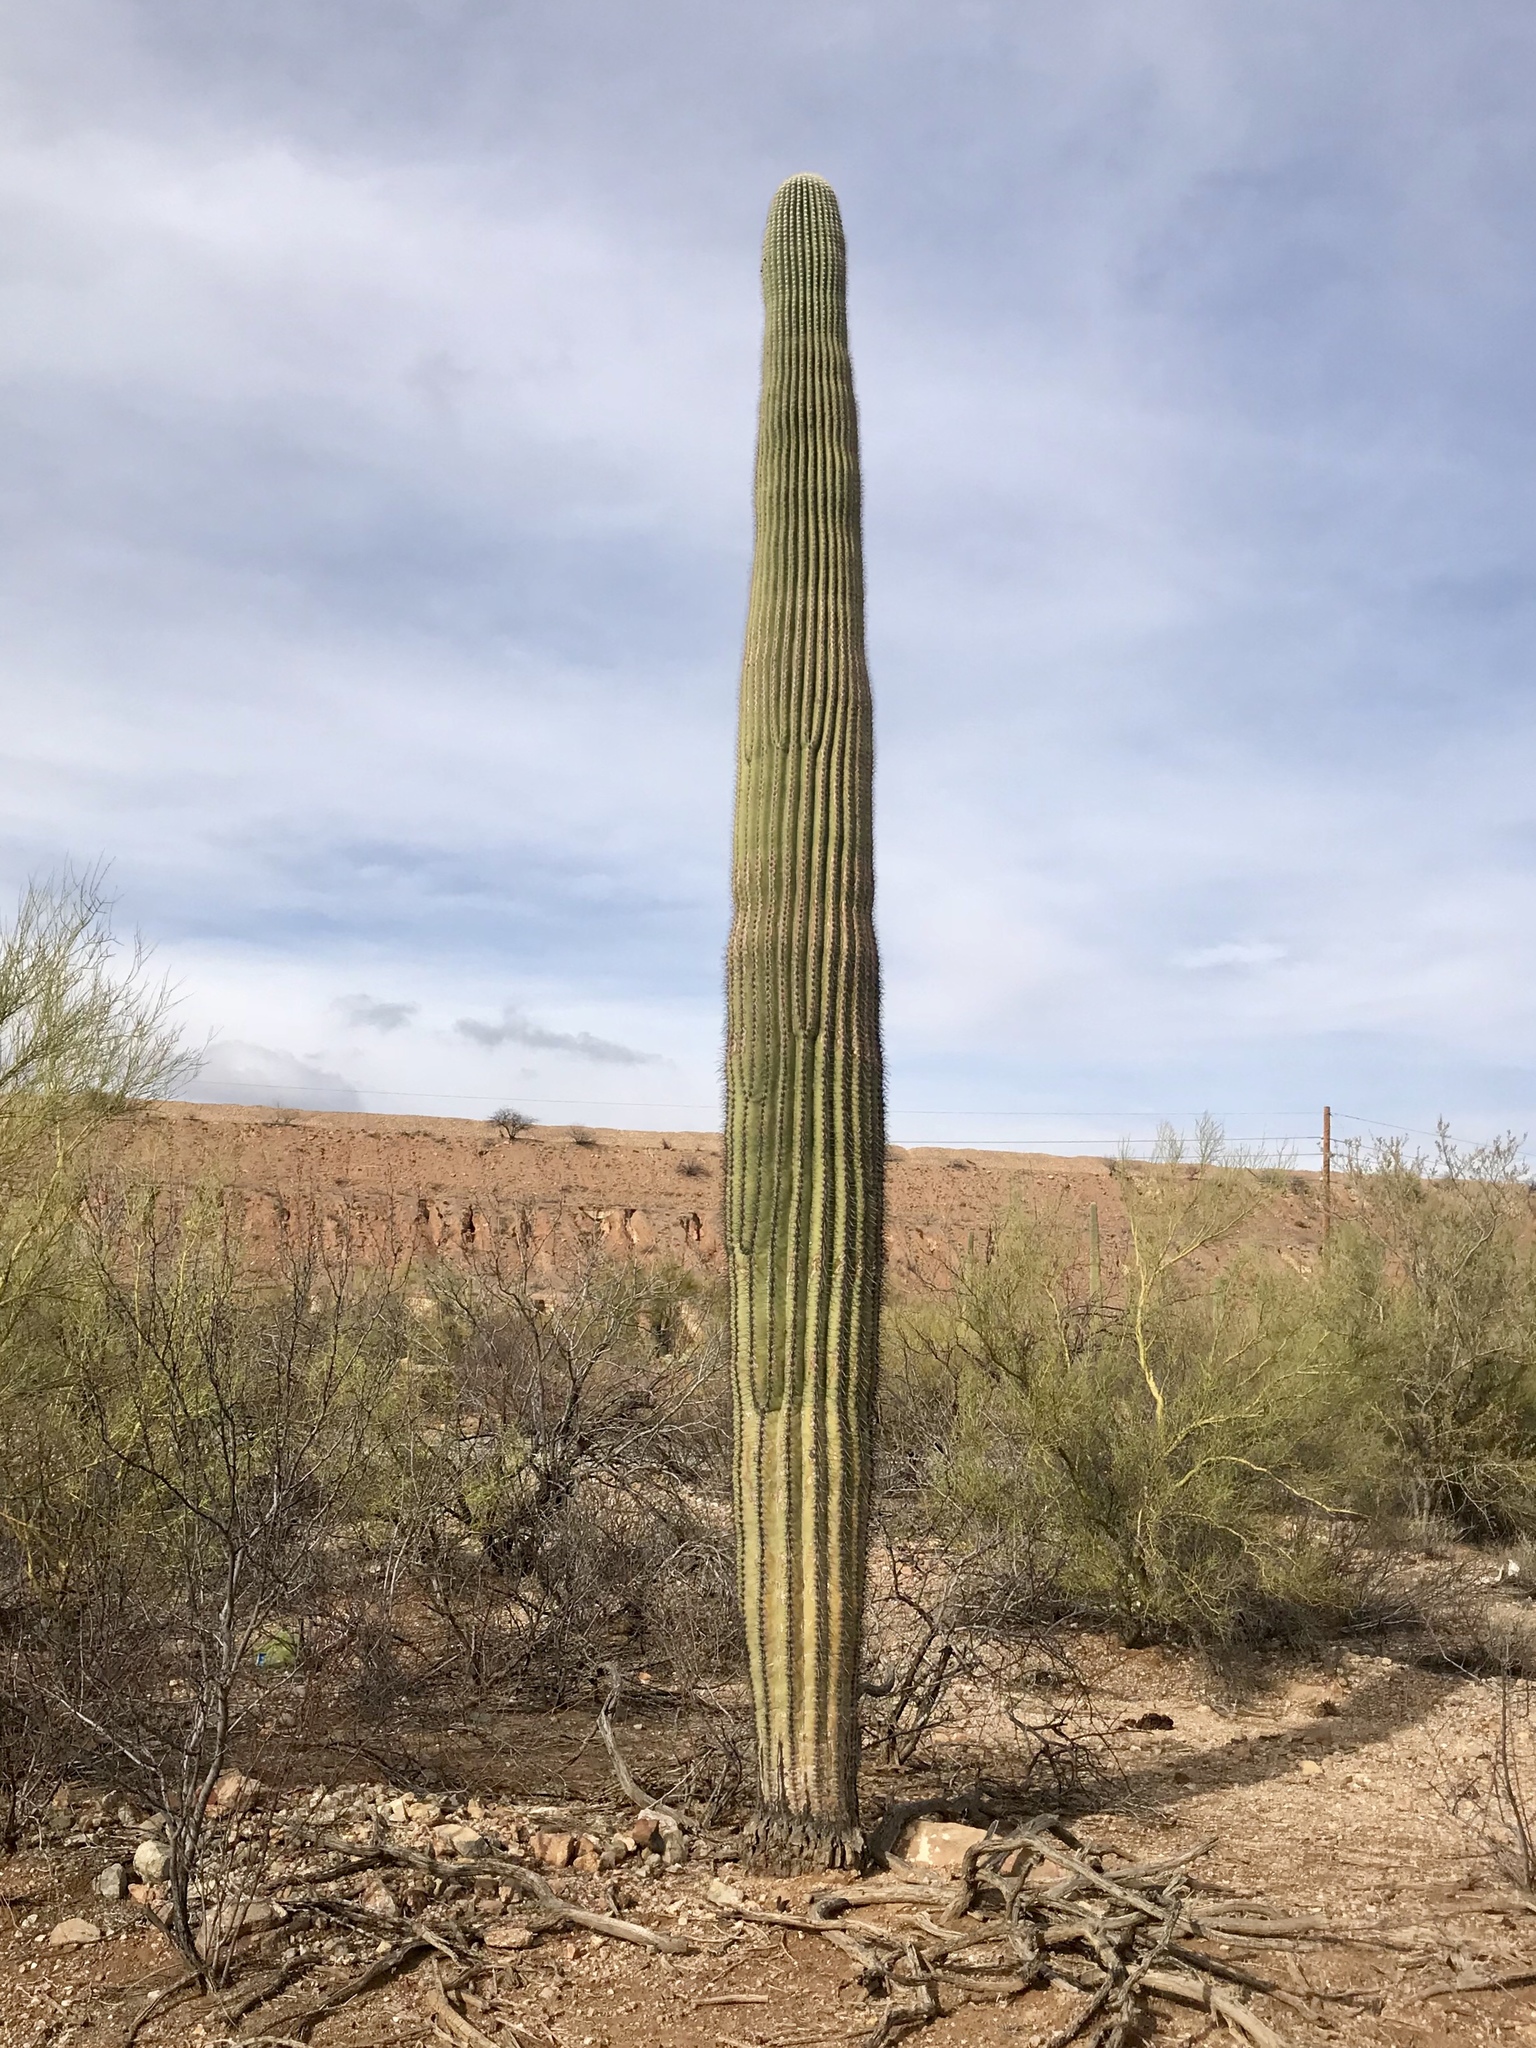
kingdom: Plantae
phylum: Tracheophyta
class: Magnoliopsida
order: Caryophyllales
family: Cactaceae
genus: Carnegiea
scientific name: Carnegiea gigantea
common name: Saguaro
